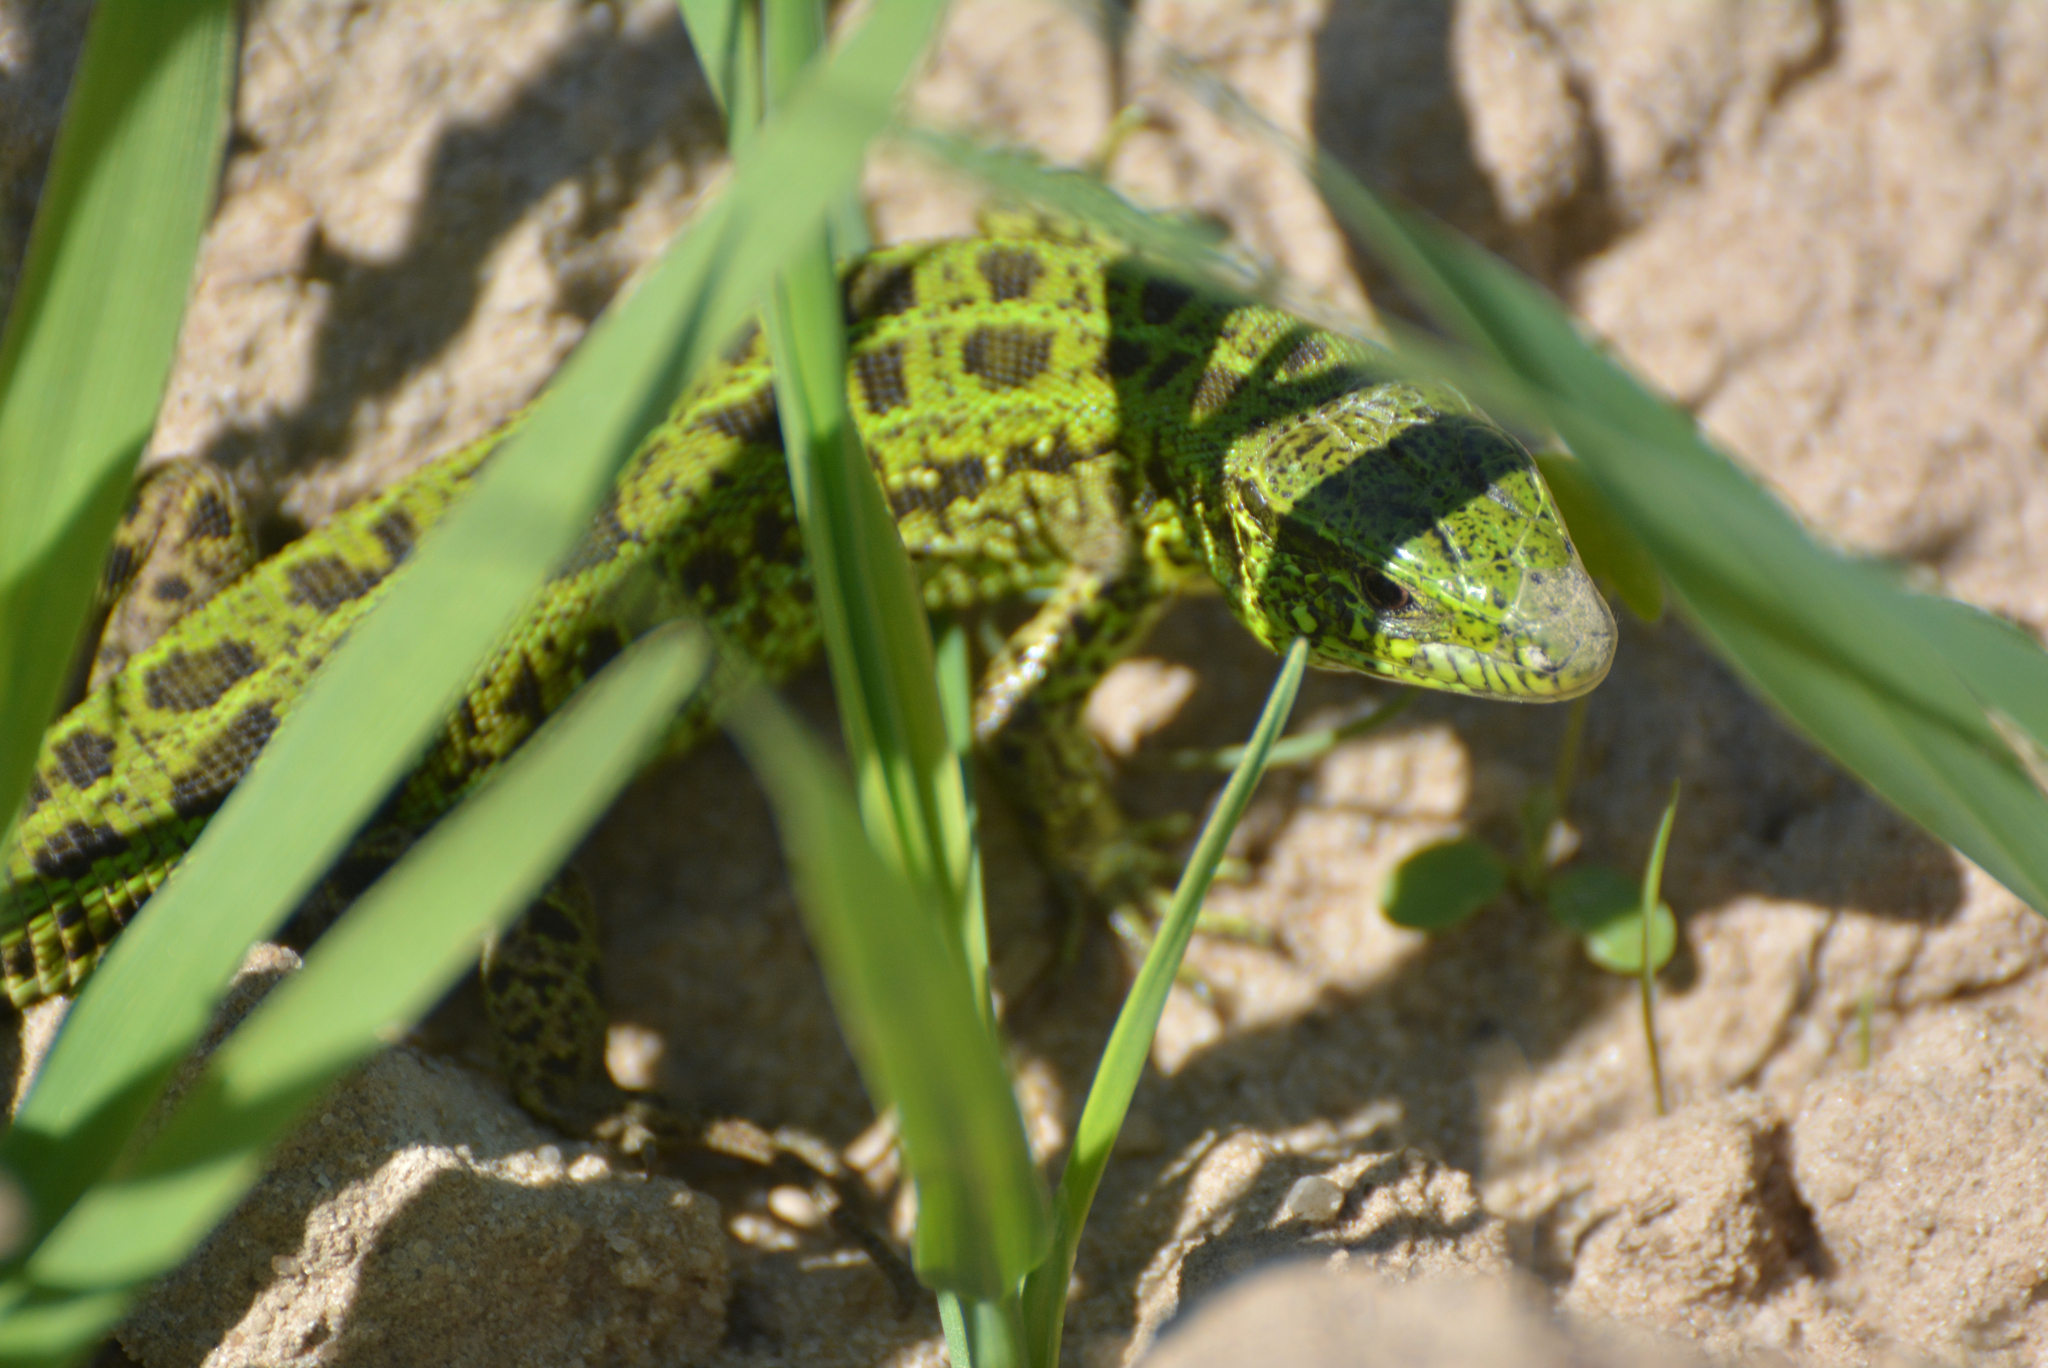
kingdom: Animalia
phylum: Chordata
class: Squamata
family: Lacertidae
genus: Lacerta
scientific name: Lacerta agilis
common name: Sand lizard
